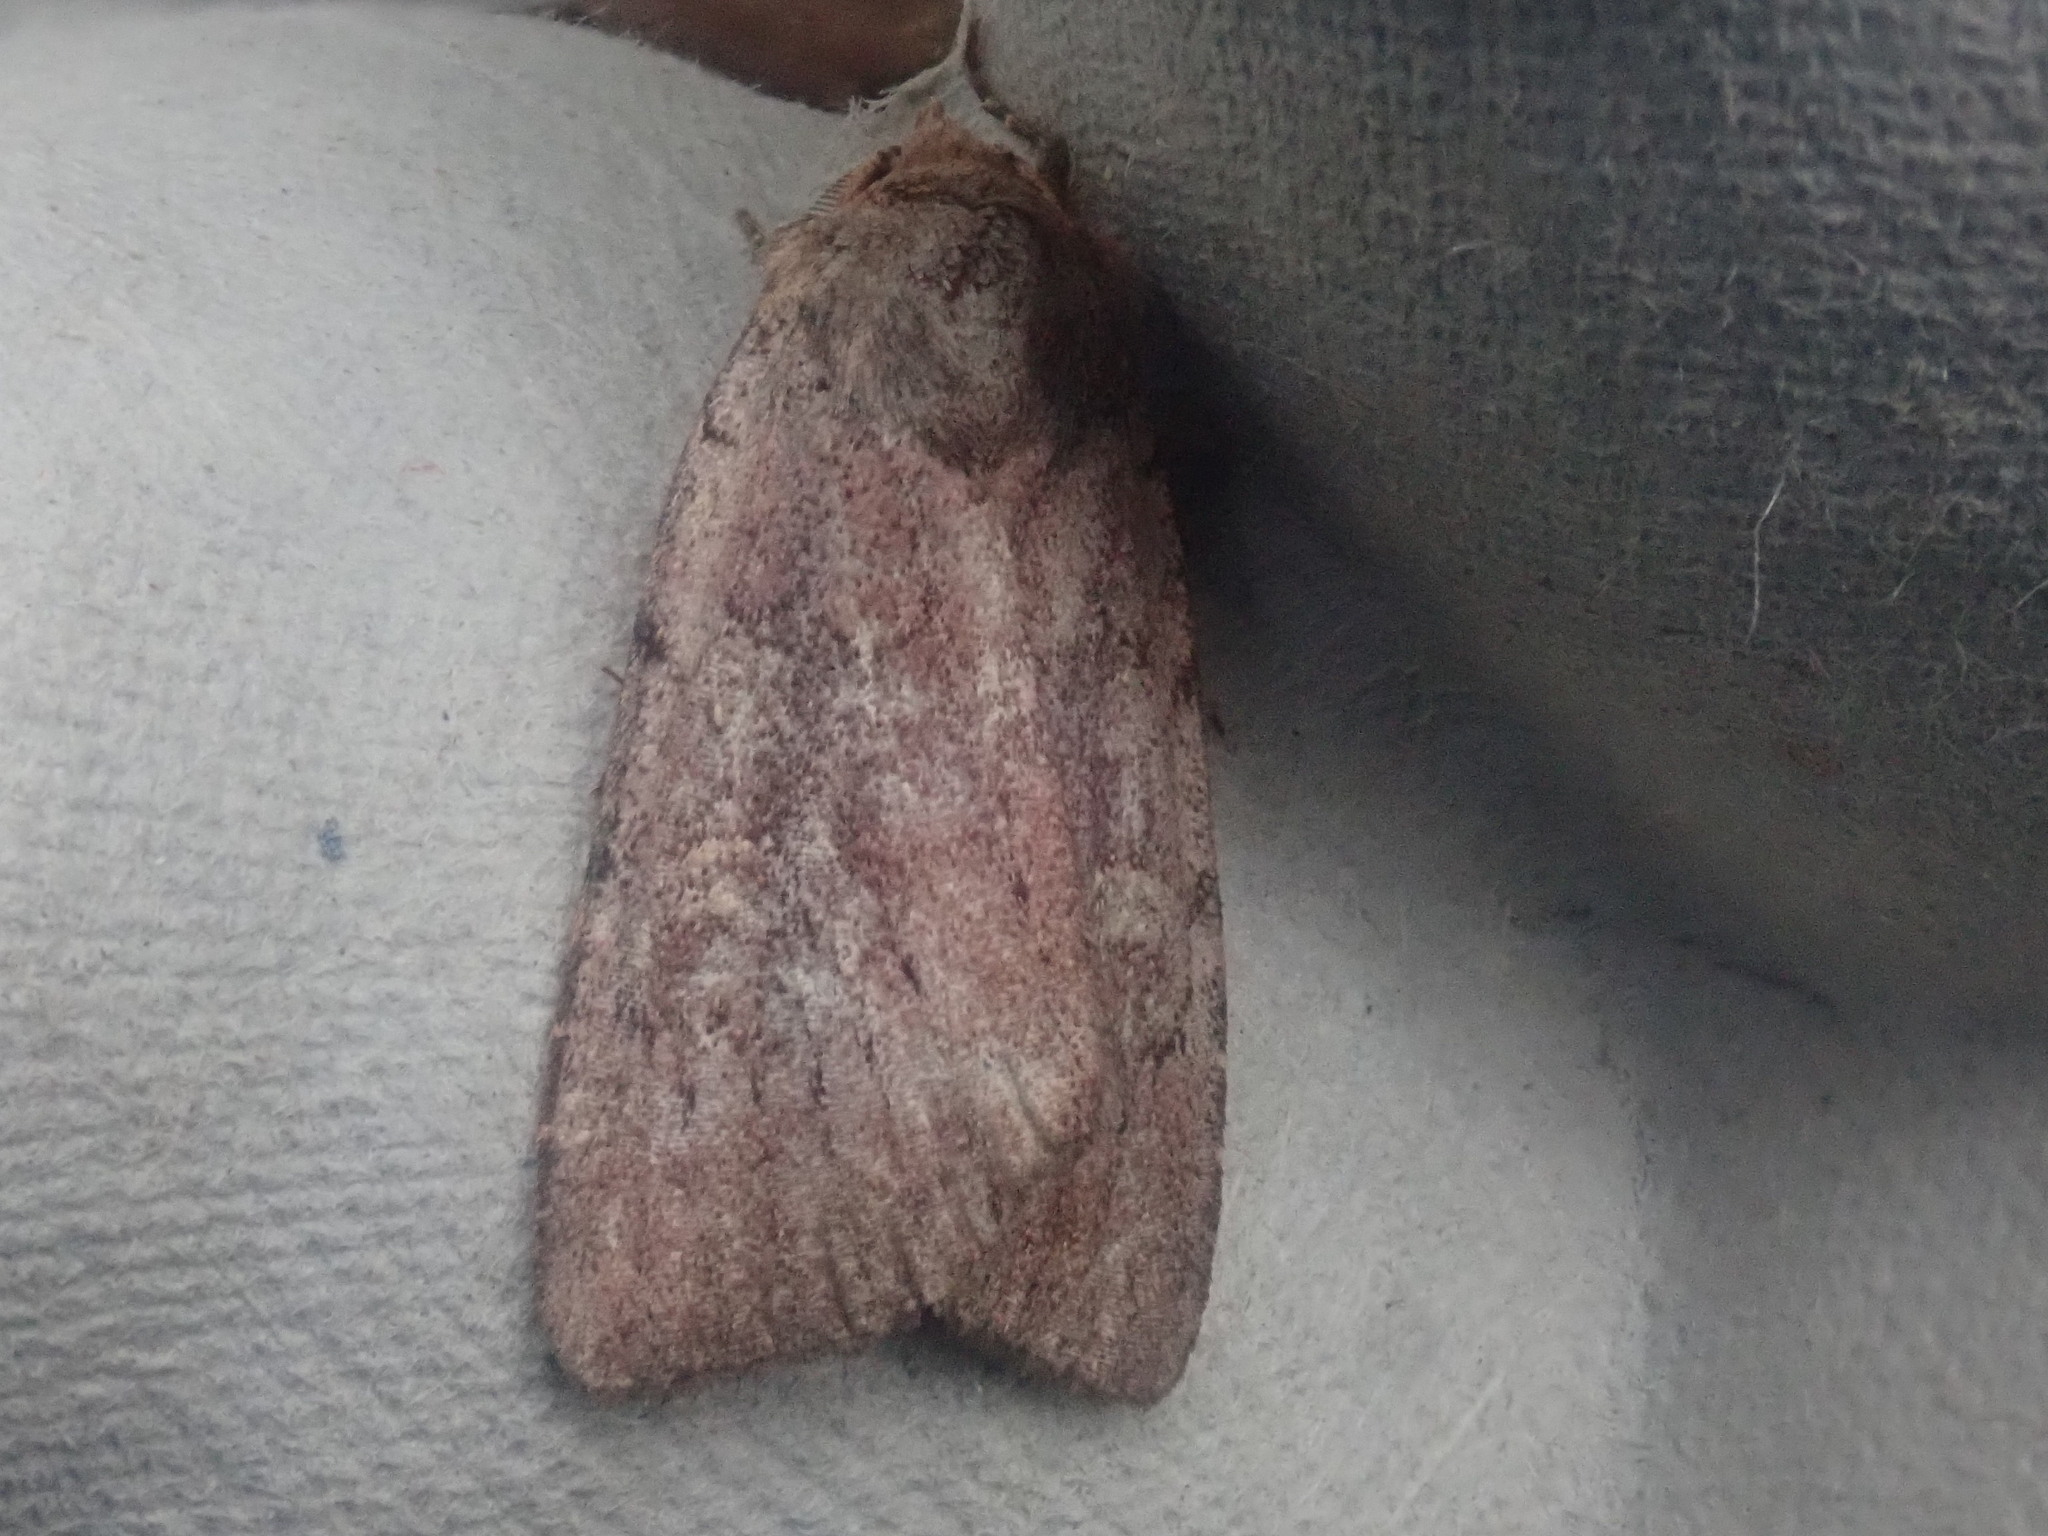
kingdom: Animalia
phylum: Arthropoda
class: Insecta
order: Lepidoptera
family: Noctuidae
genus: Xestia
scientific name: Xestia dilucida
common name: Dull reddish dart
